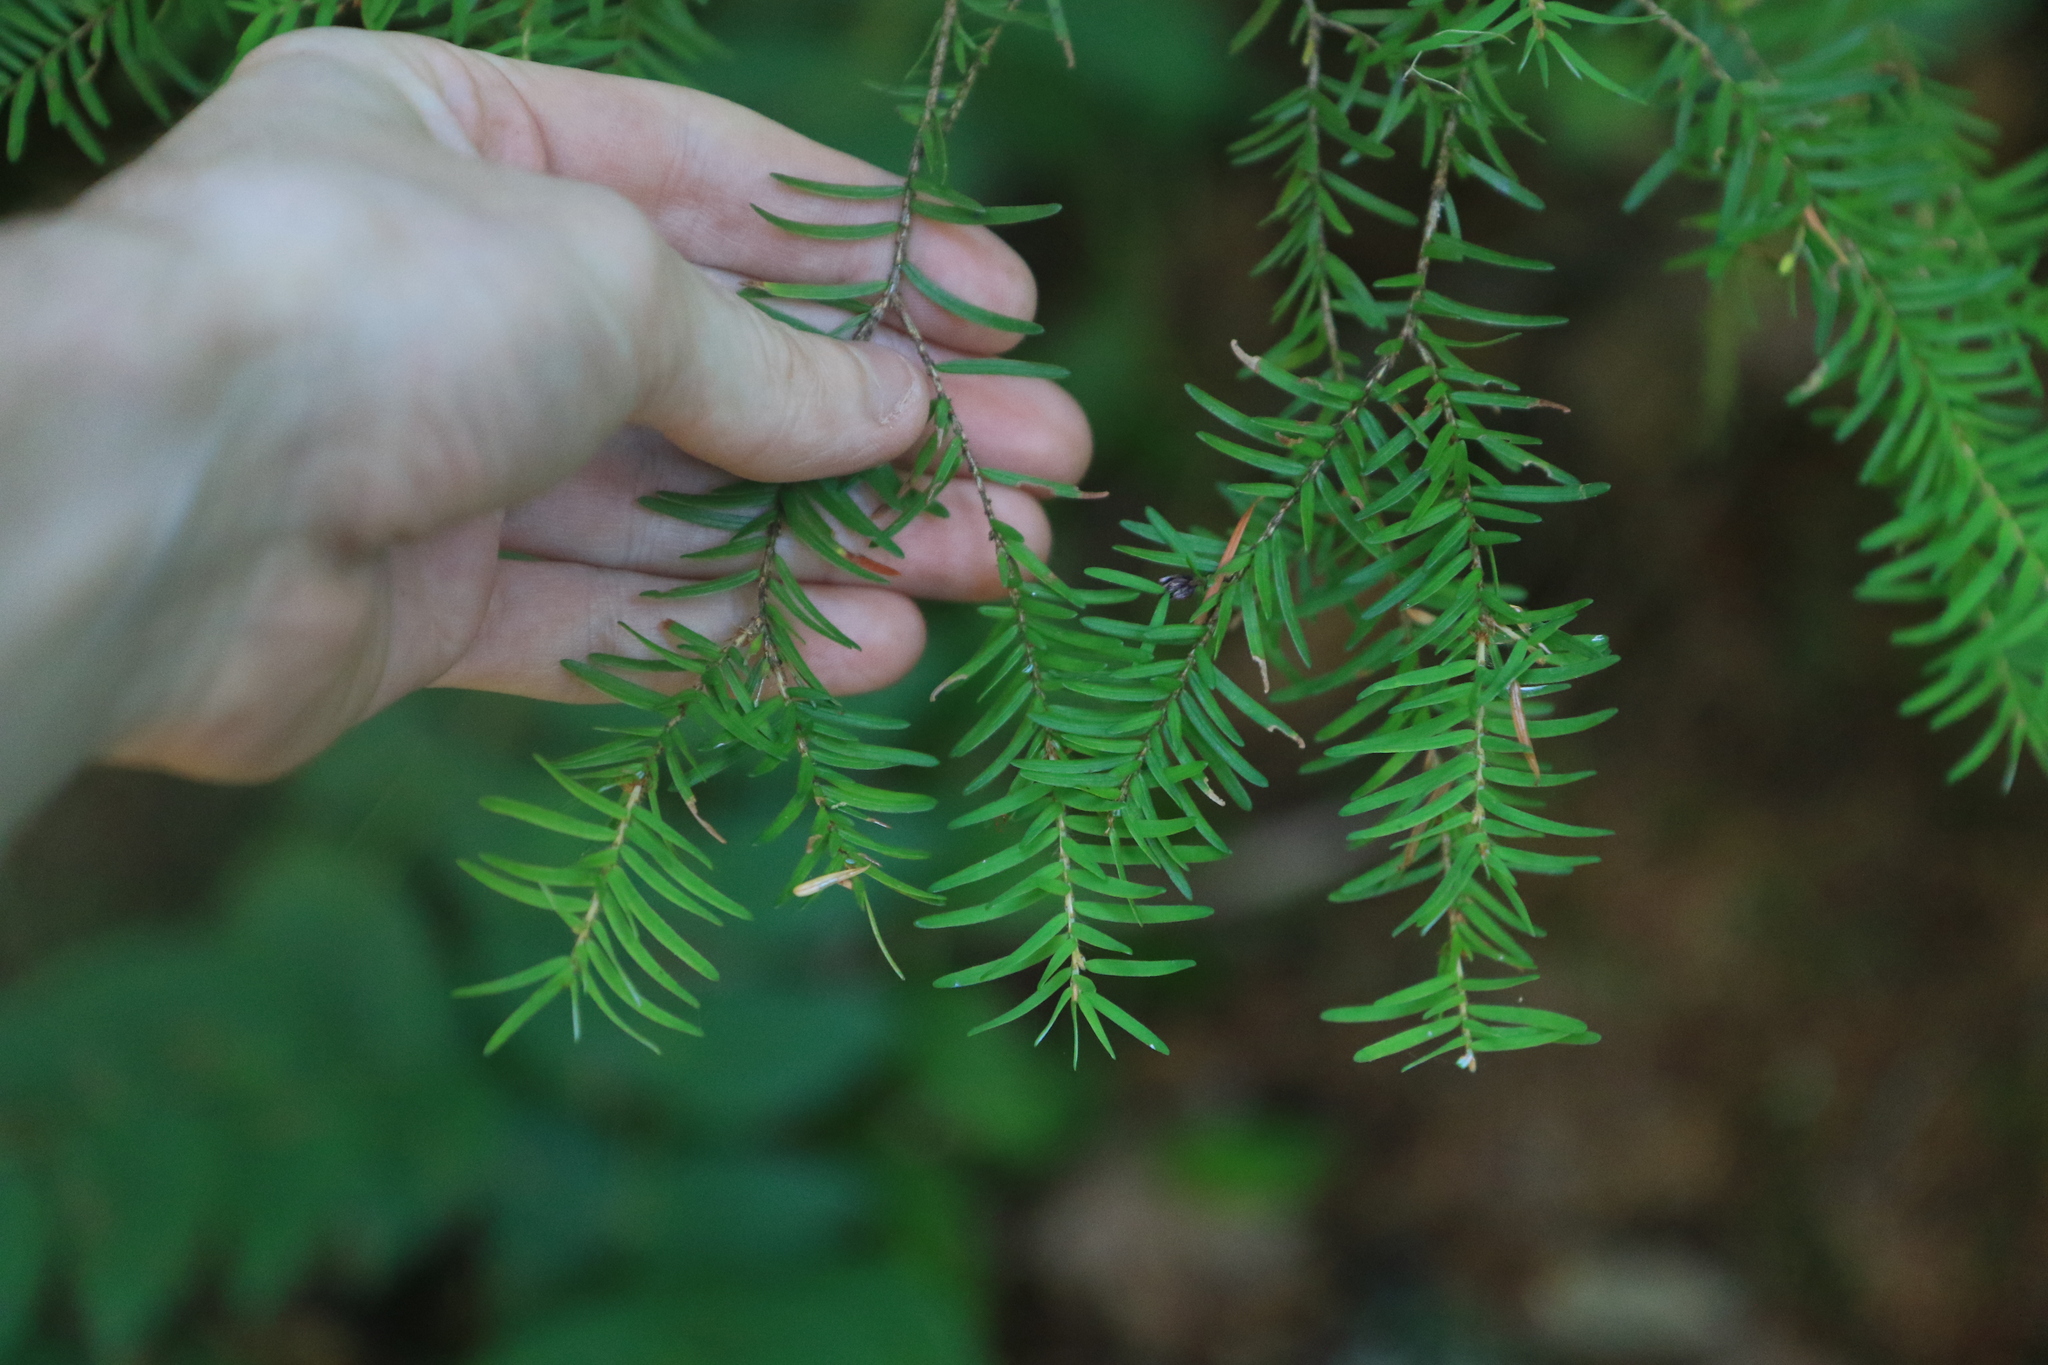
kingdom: Plantae
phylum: Tracheophyta
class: Pinopsida
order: Pinales
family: Pinaceae
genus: Tsuga
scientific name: Tsuga heterophylla
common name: Western hemlock
